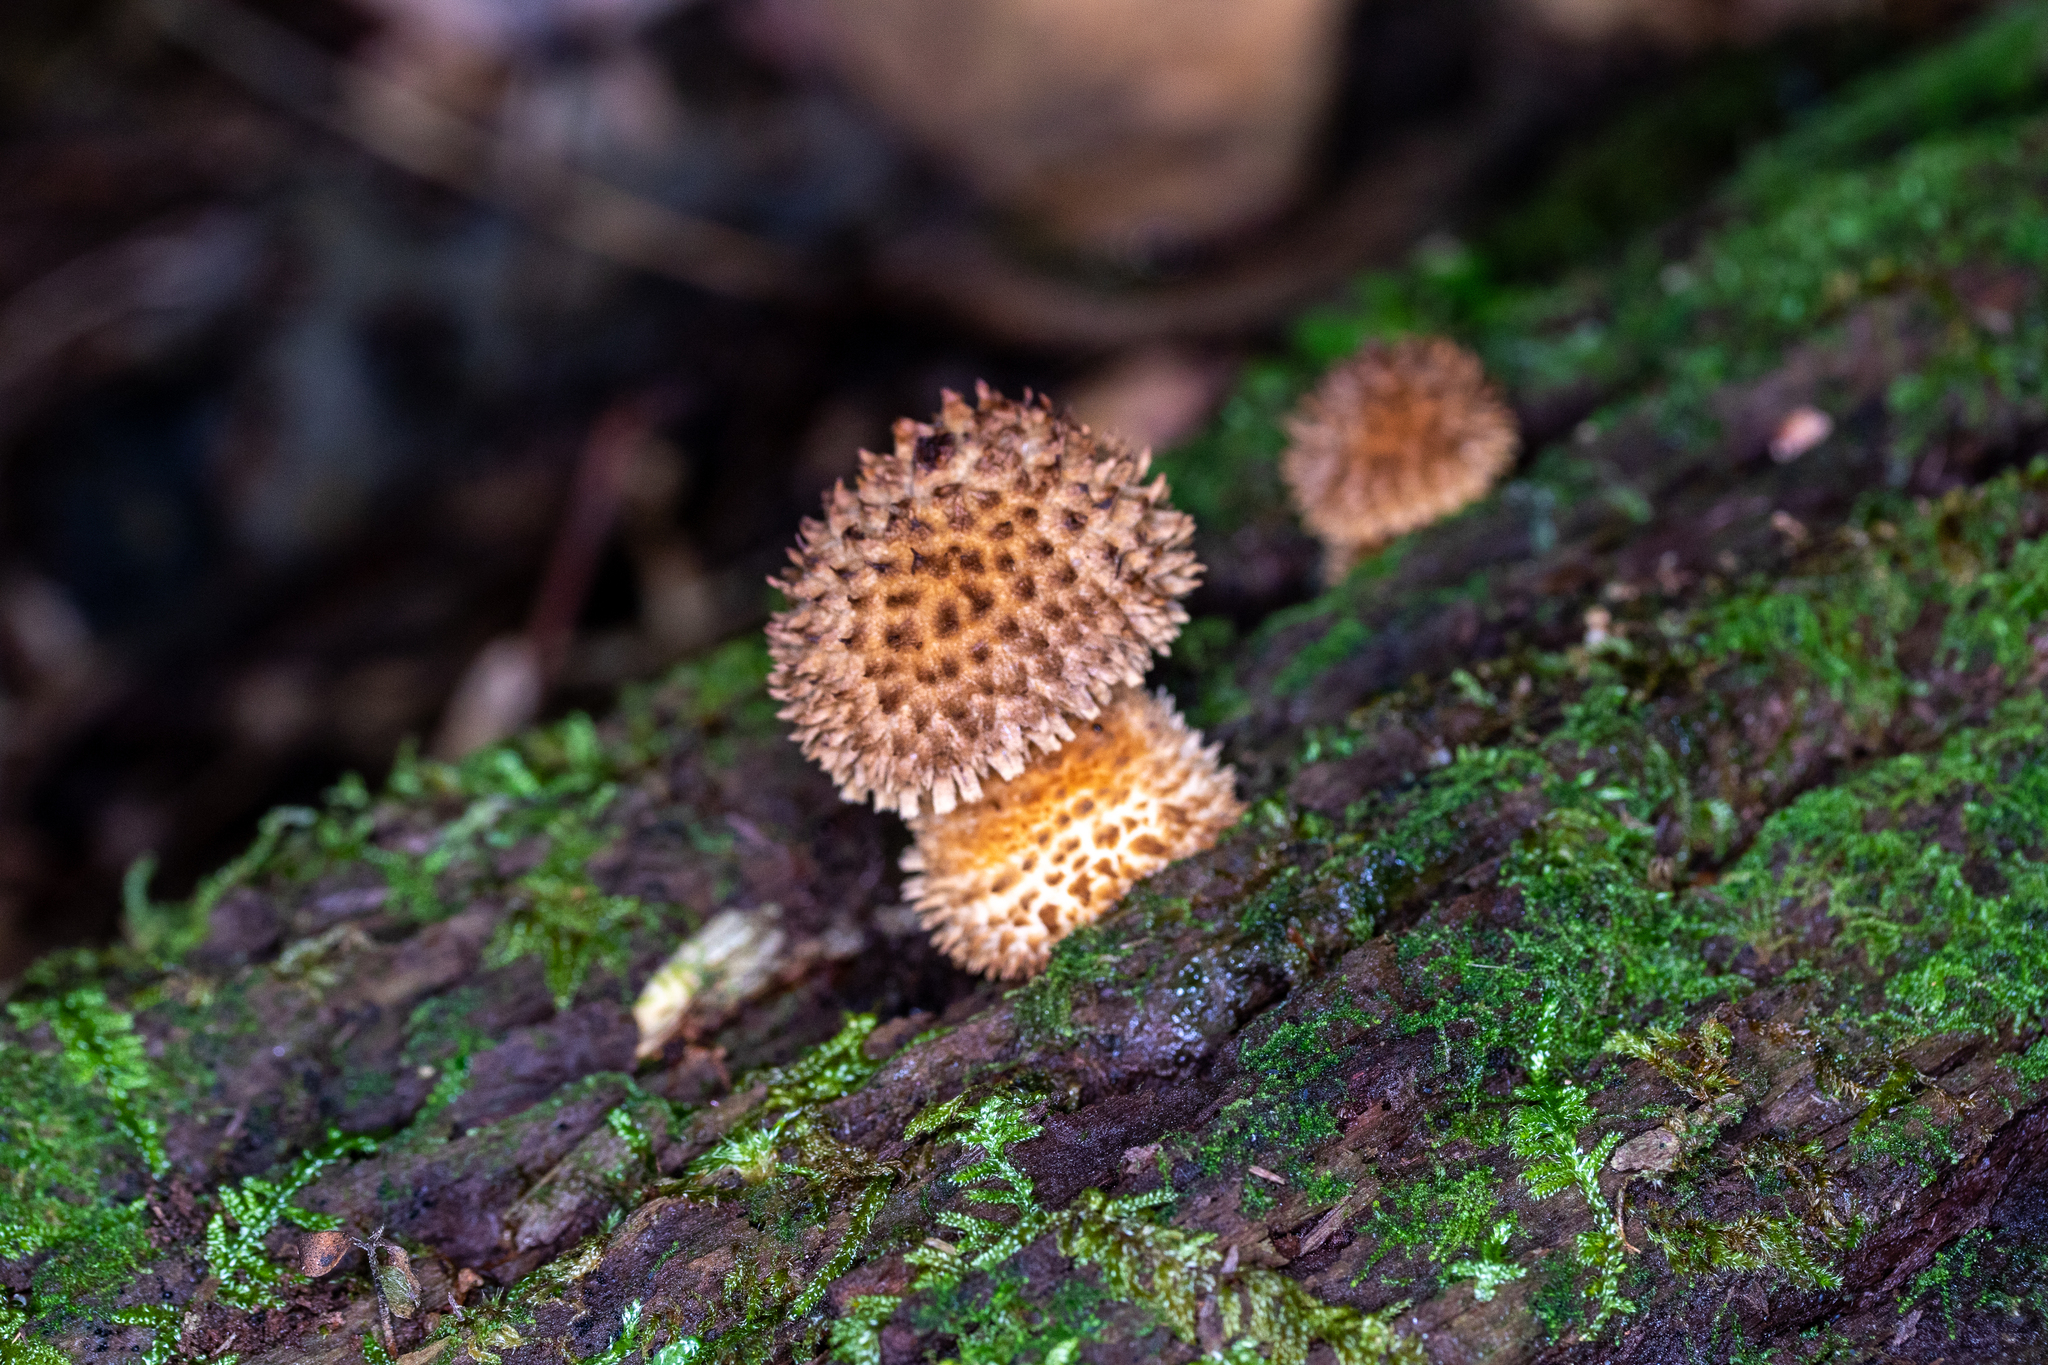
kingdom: Fungi
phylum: Basidiomycota
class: Agaricomycetes
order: Agaricales
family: Agaricaceae
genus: Leucopholiota
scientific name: Leucopholiota decorosa
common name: Decorated pholiota
